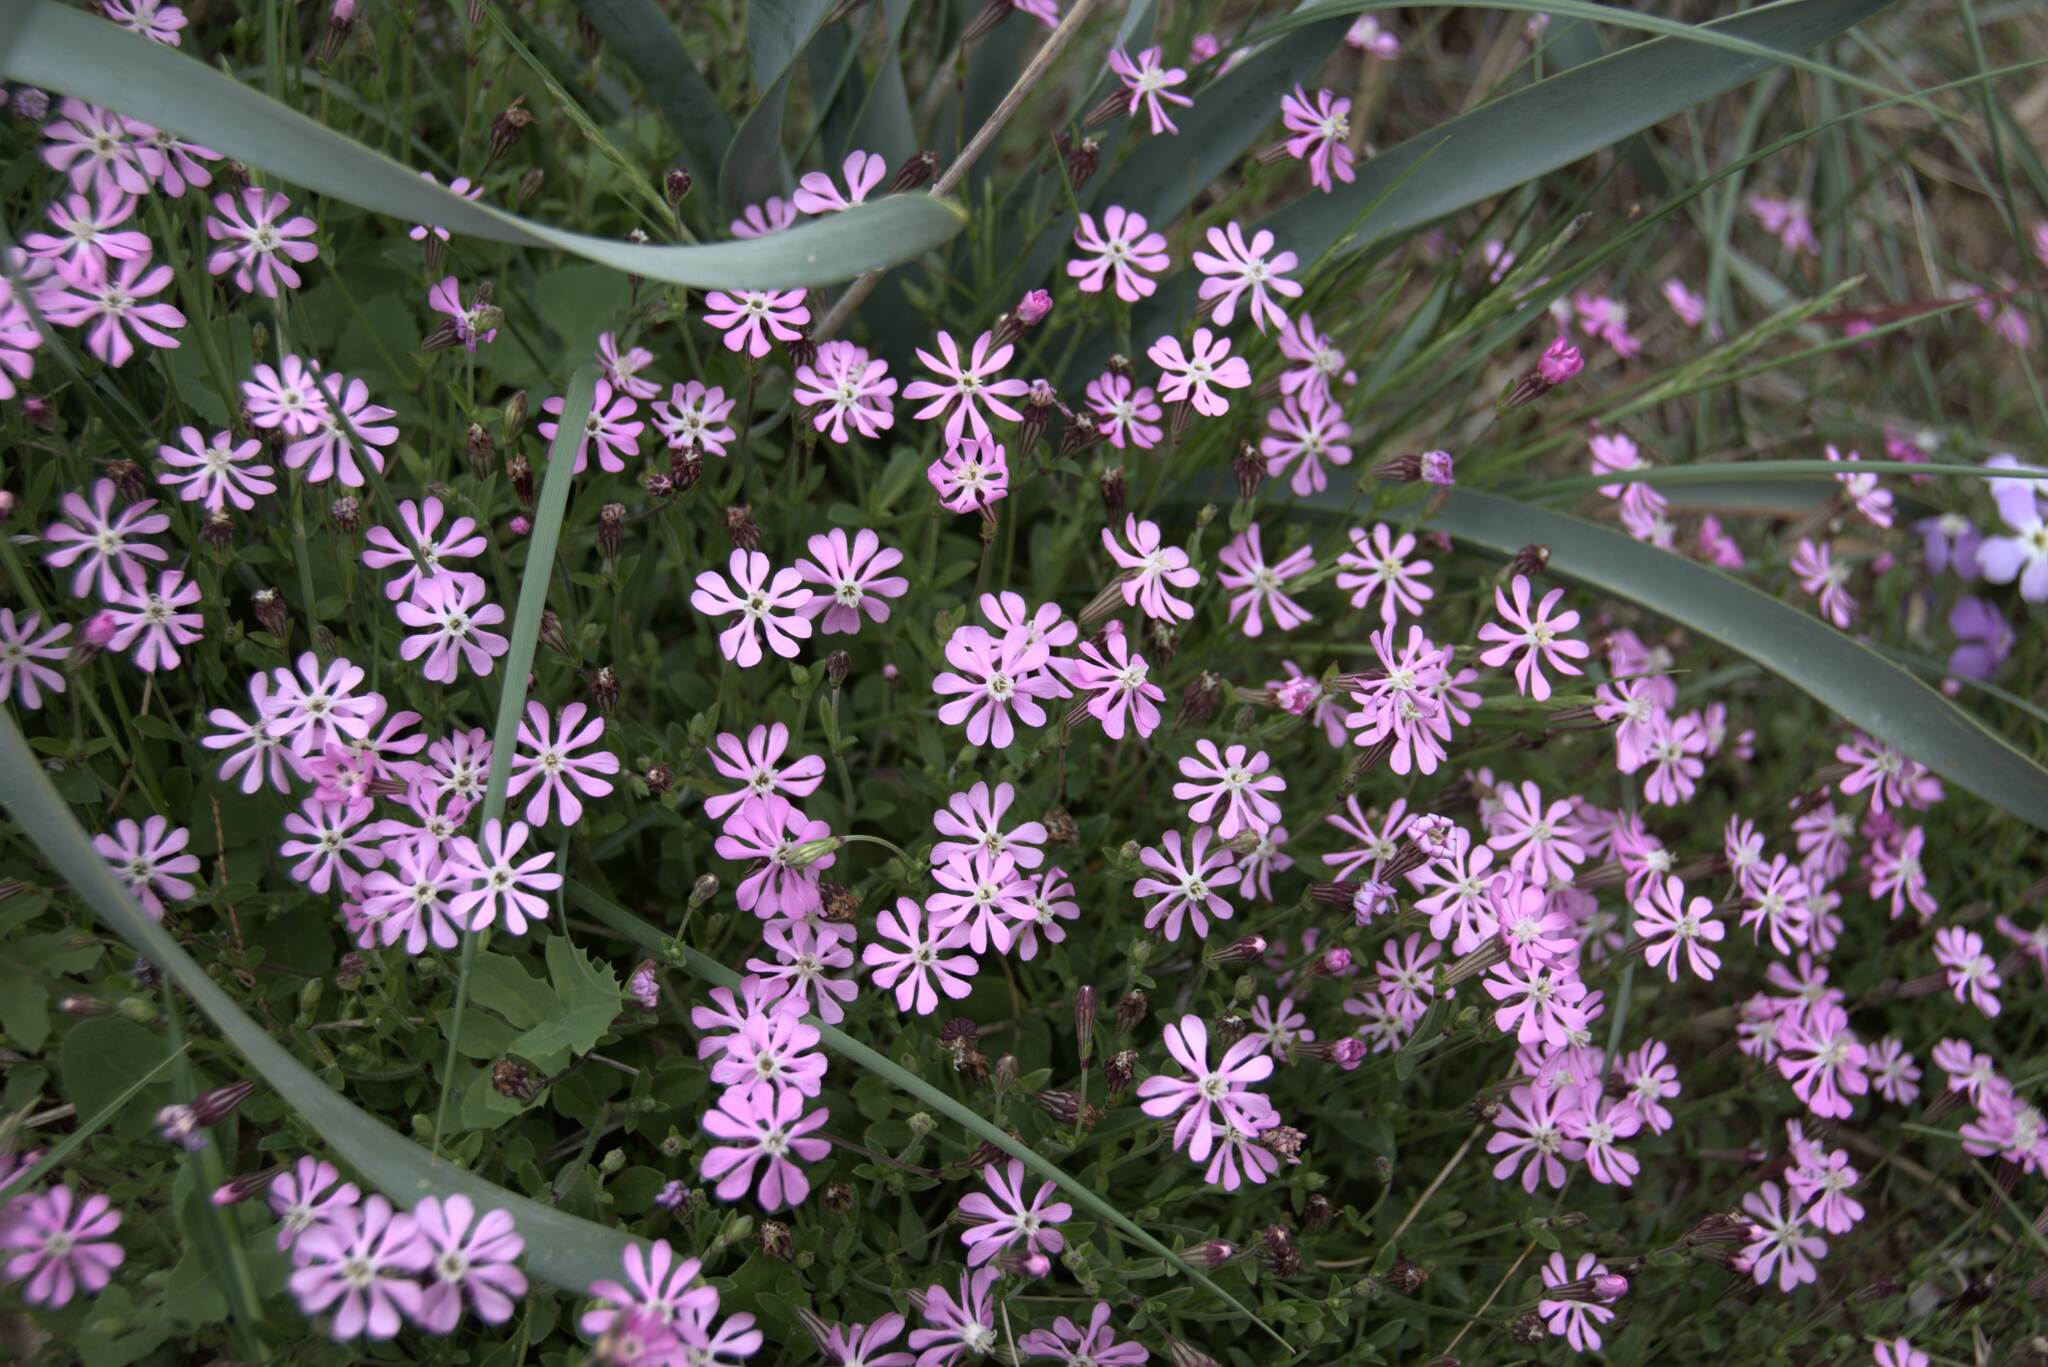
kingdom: Plantae
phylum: Tracheophyta
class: Magnoliopsida
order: Caryophyllales
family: Caryophyllaceae
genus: Silene
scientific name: Silene colorata
